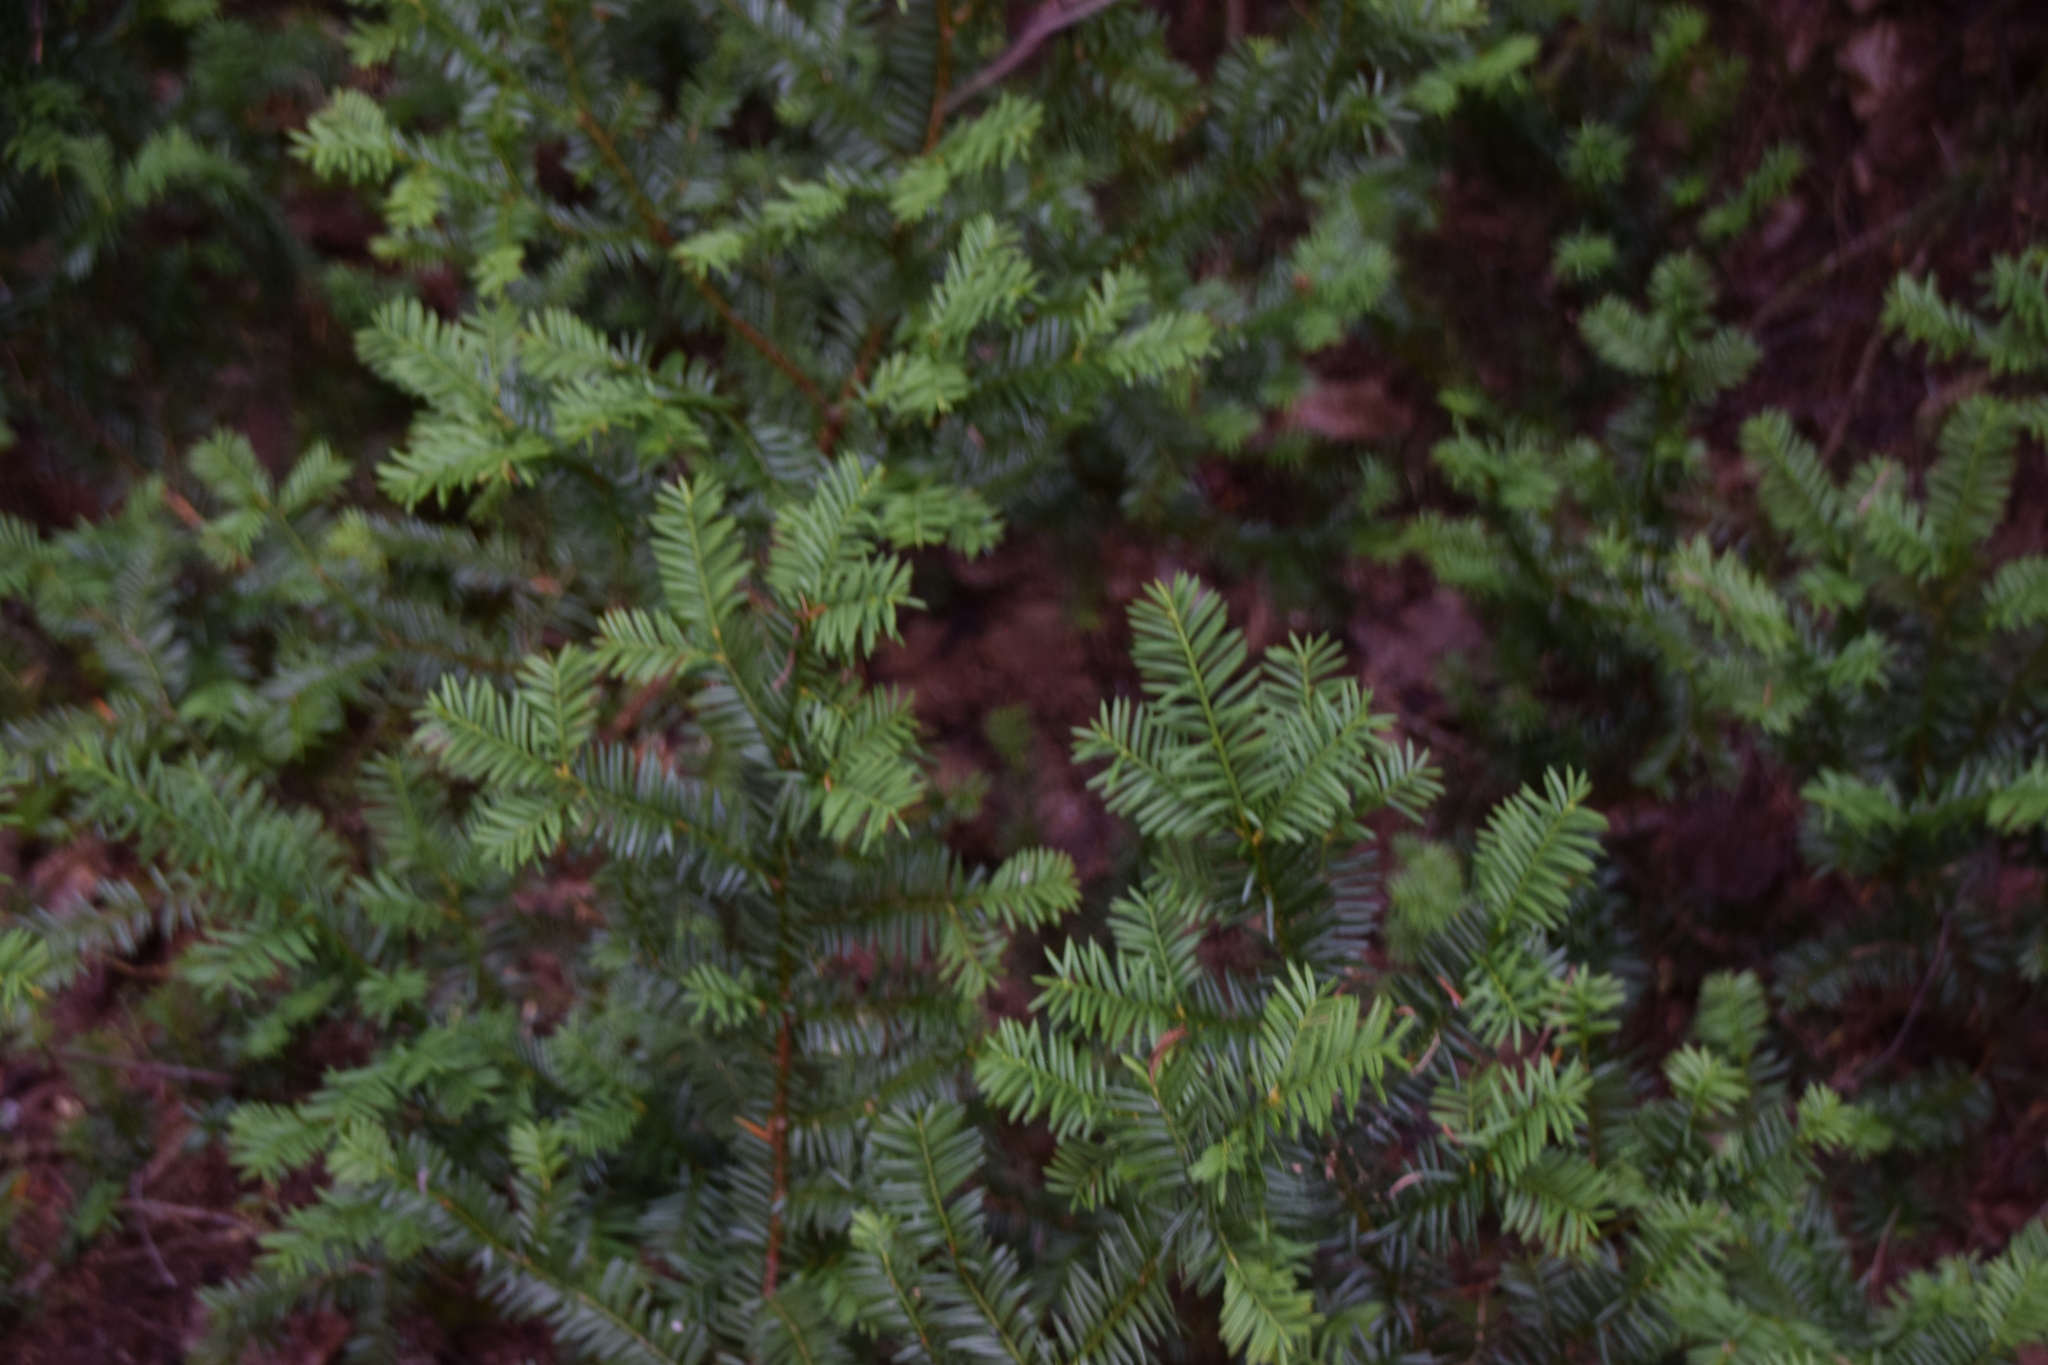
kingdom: Plantae
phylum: Tracheophyta
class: Pinopsida
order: Pinales
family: Taxaceae
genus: Taxus
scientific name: Taxus canadensis
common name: American yew
